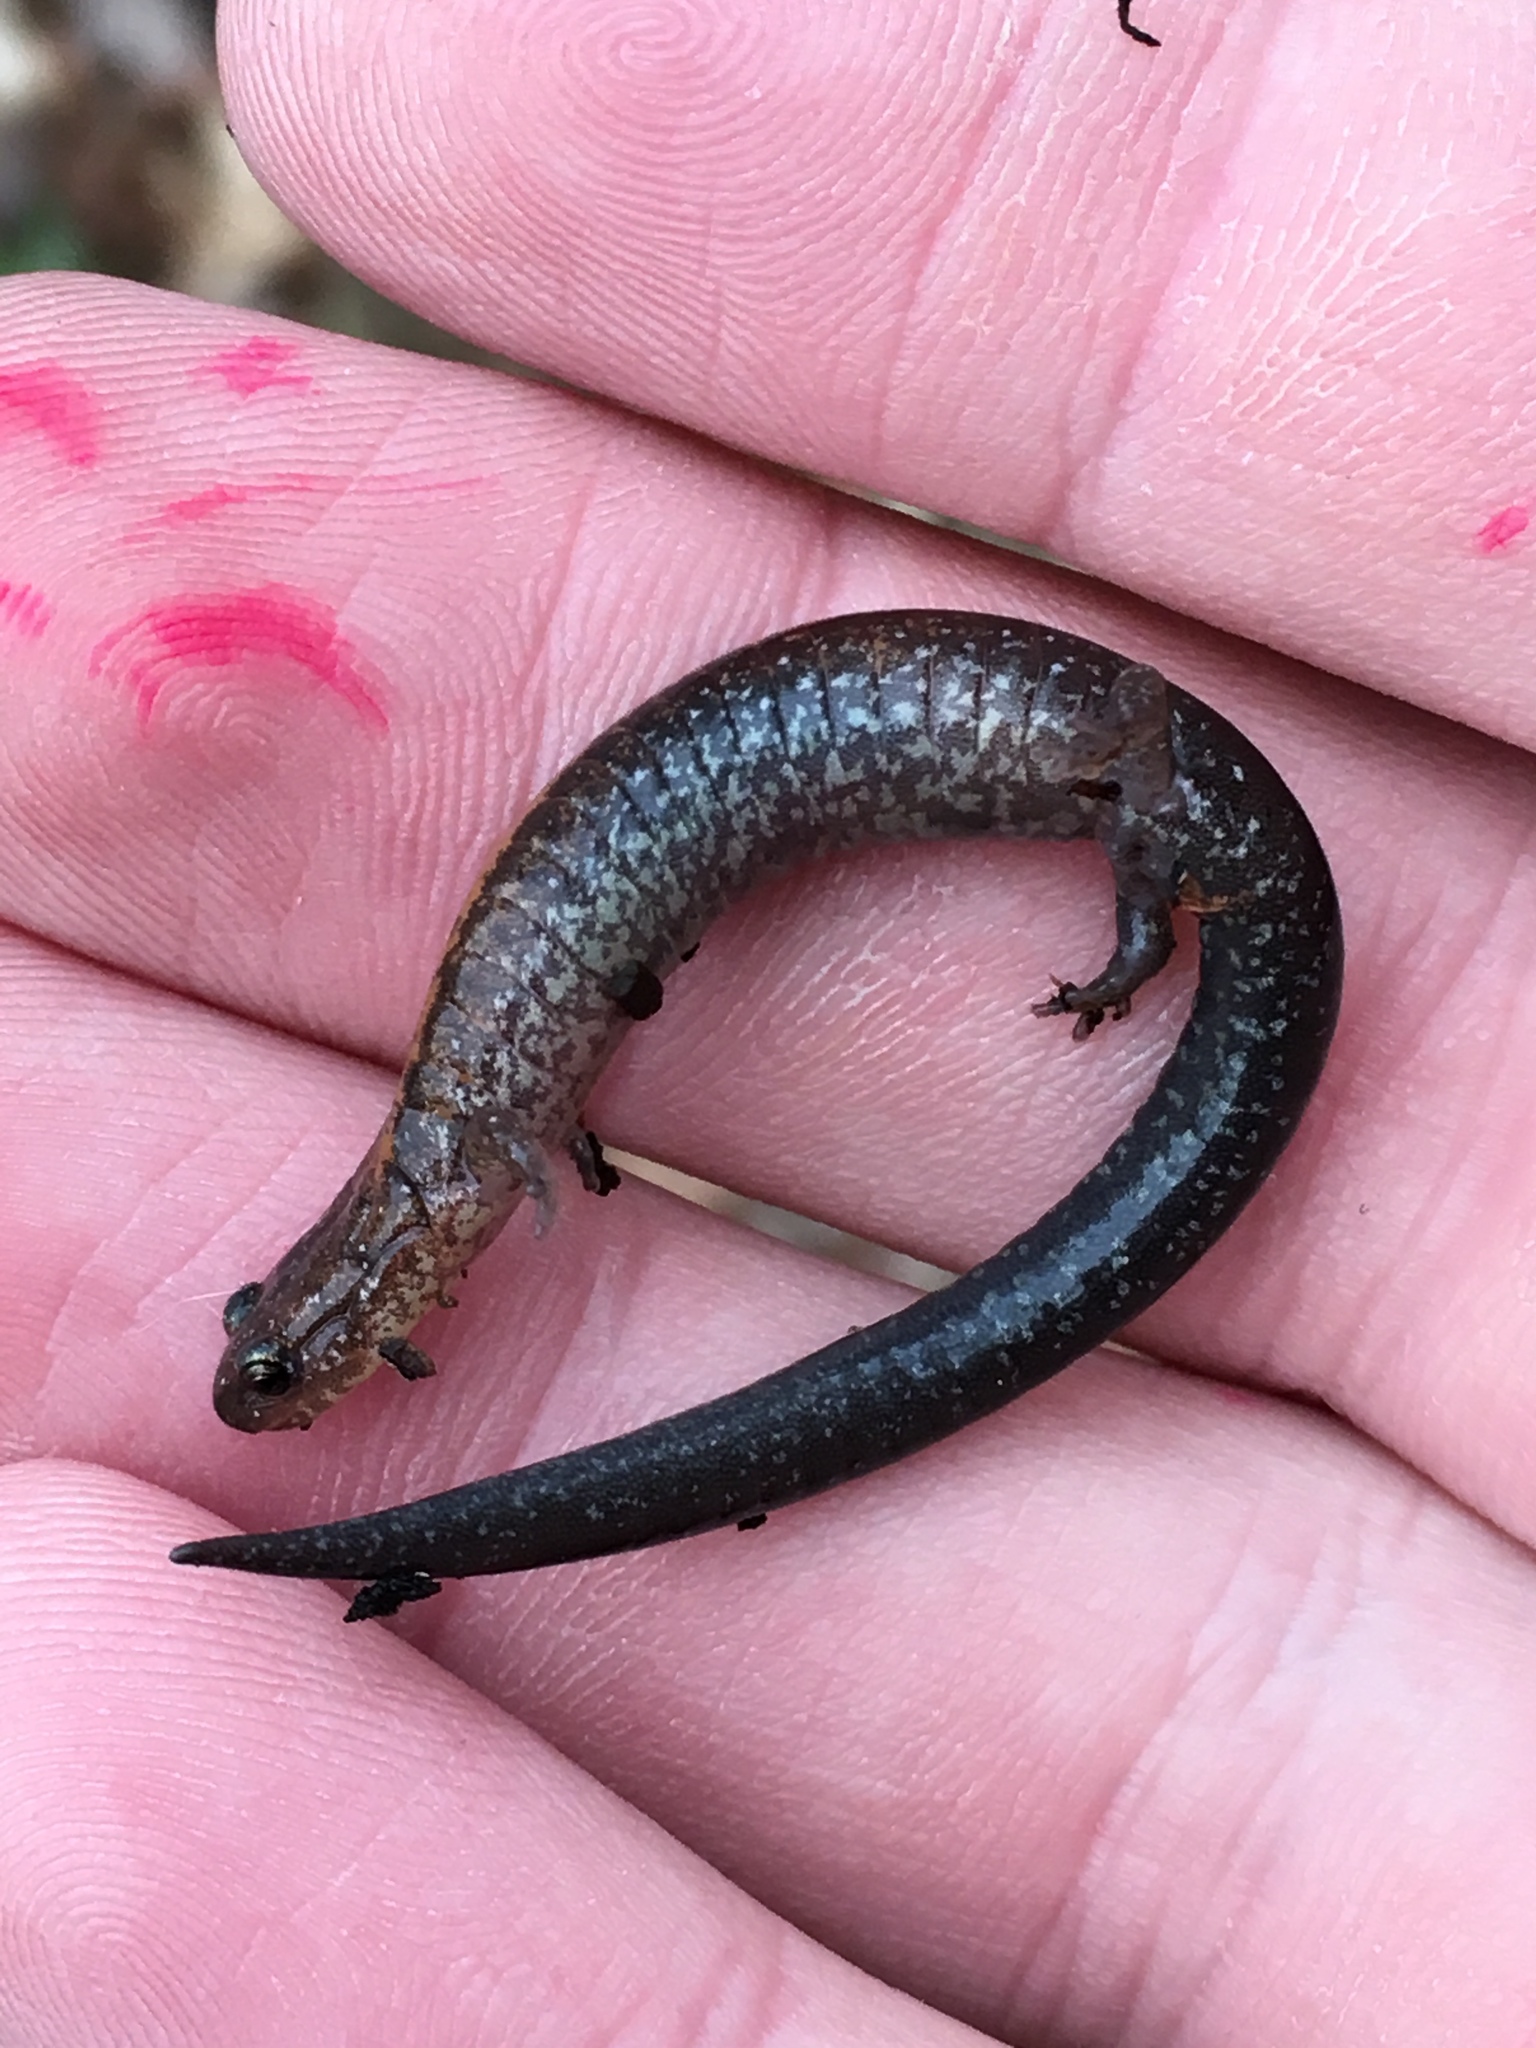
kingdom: Animalia
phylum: Chordata
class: Amphibia
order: Caudata
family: Plethodontidae
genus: Plethodon
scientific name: Plethodon cinereus
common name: Redback salamander
